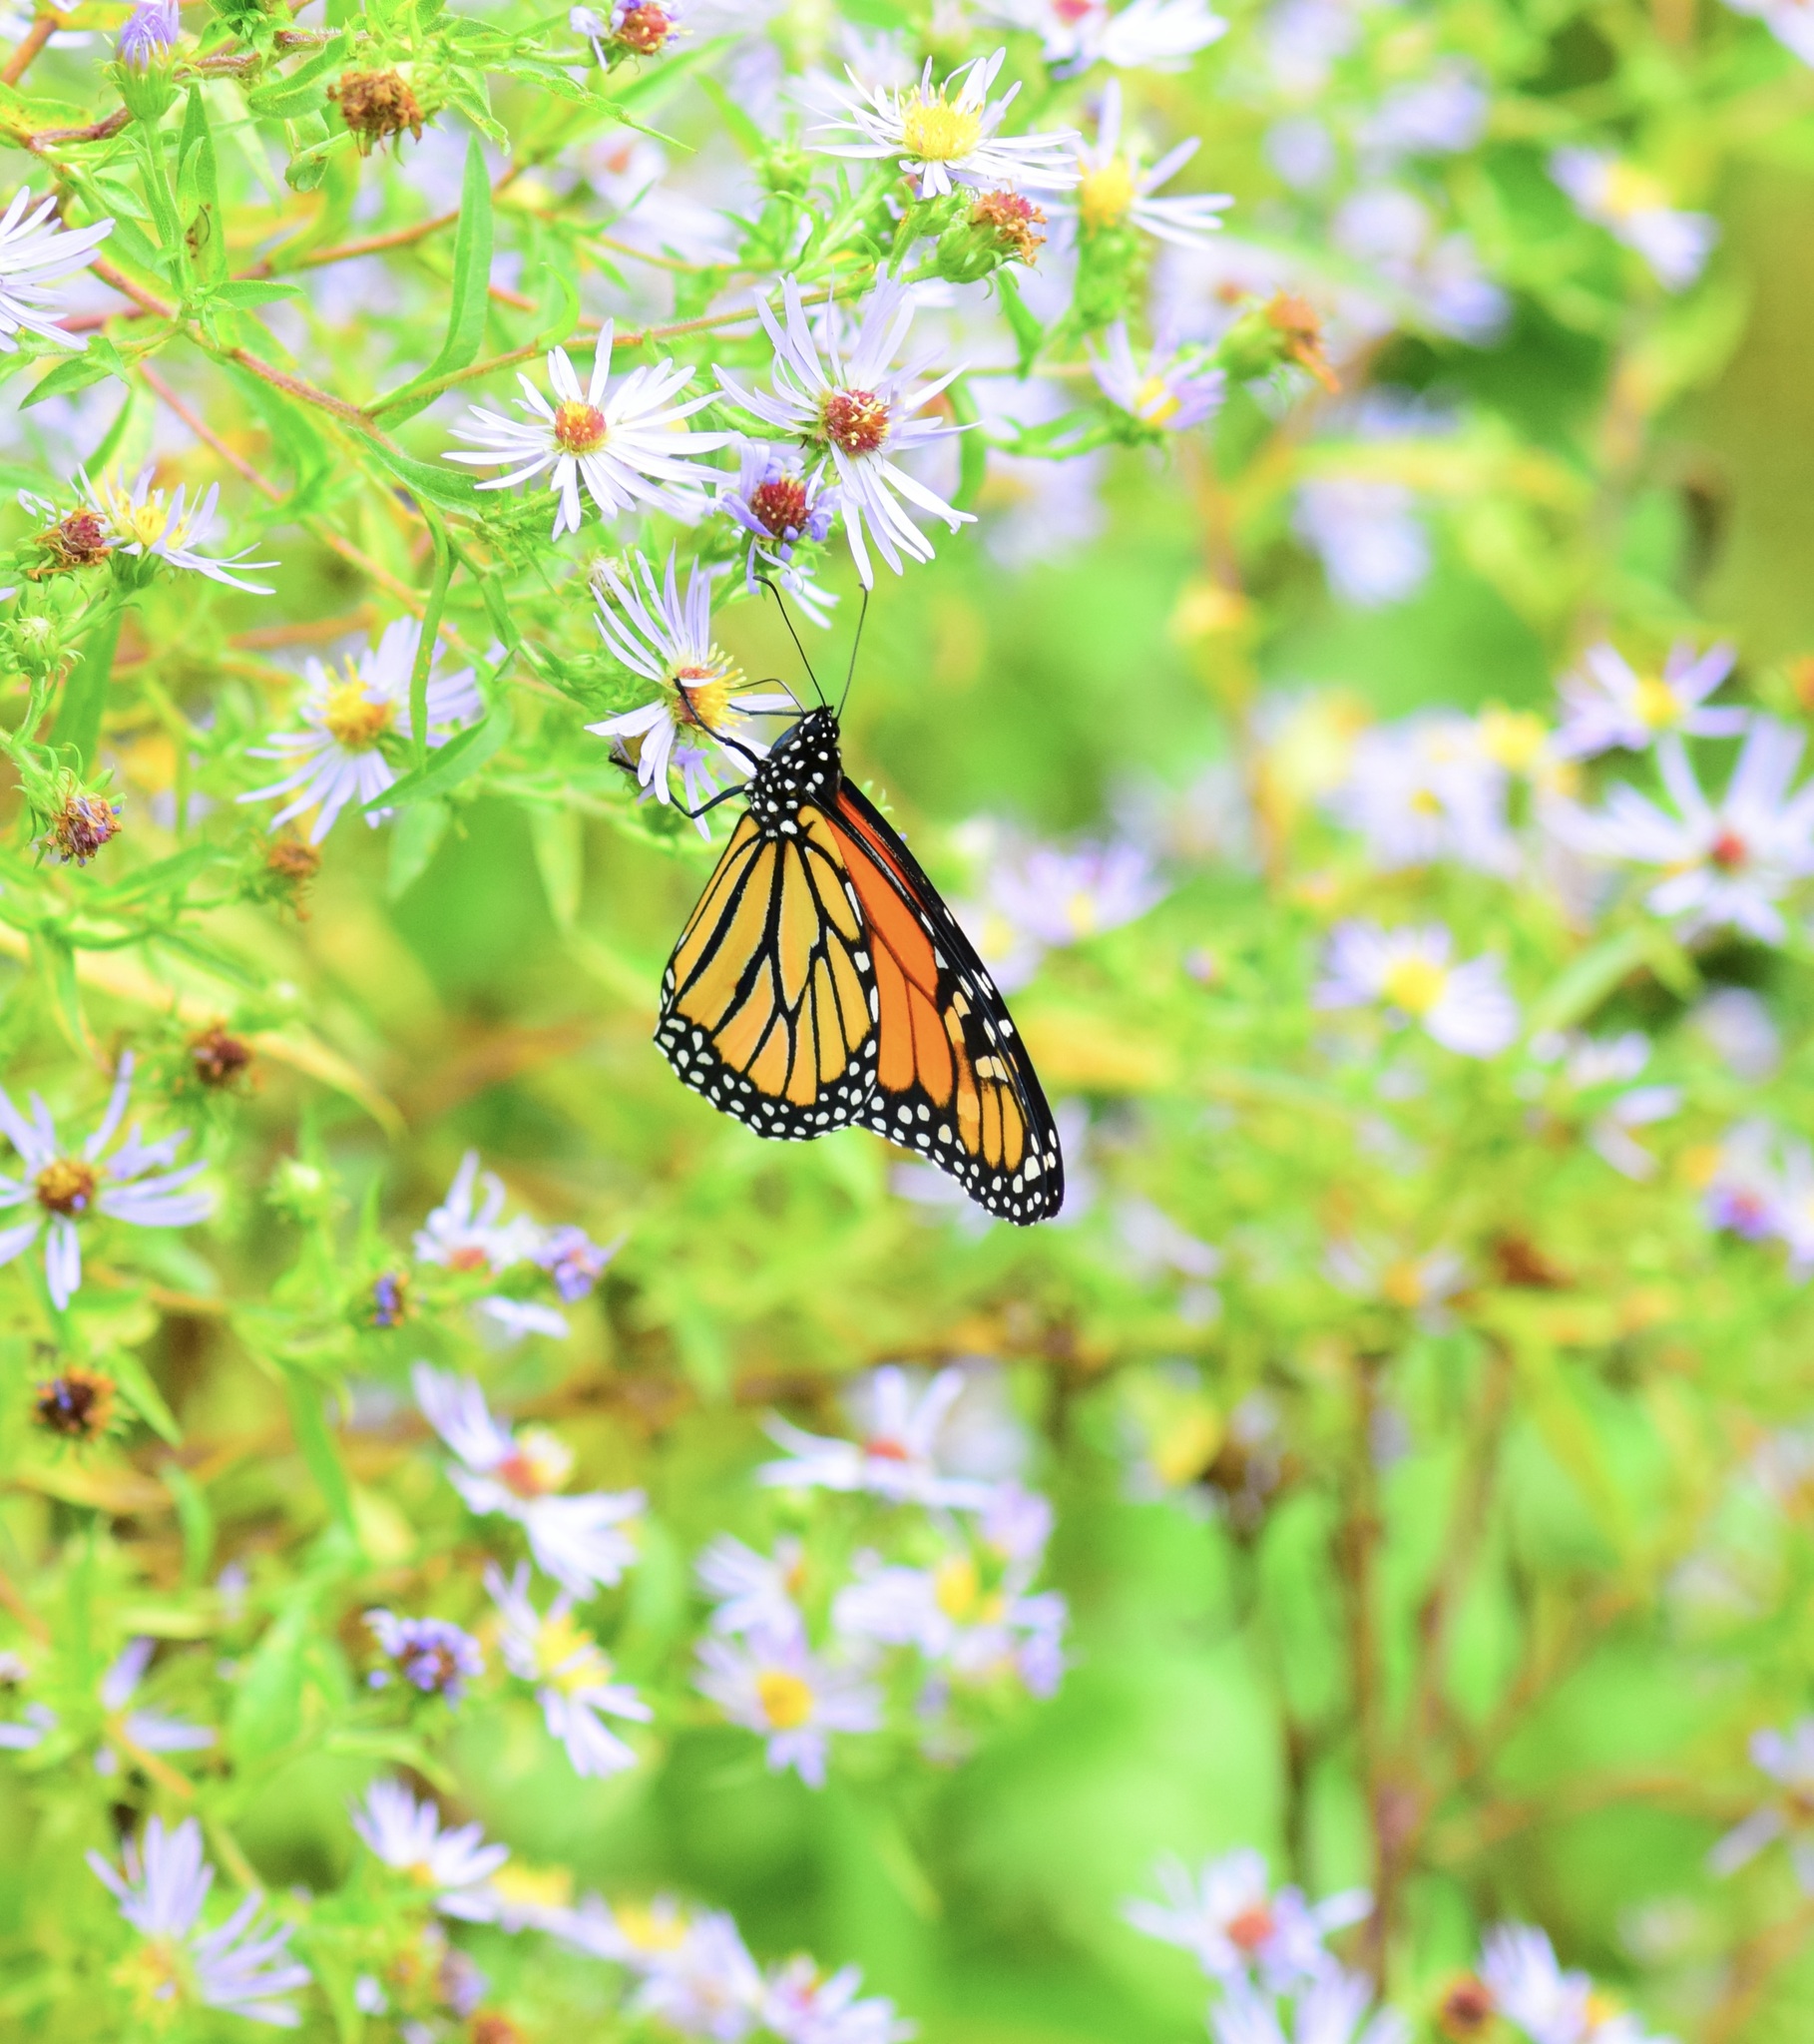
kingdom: Animalia
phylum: Arthropoda
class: Insecta
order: Lepidoptera
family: Nymphalidae
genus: Danaus
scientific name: Danaus plexippus
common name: Monarch
